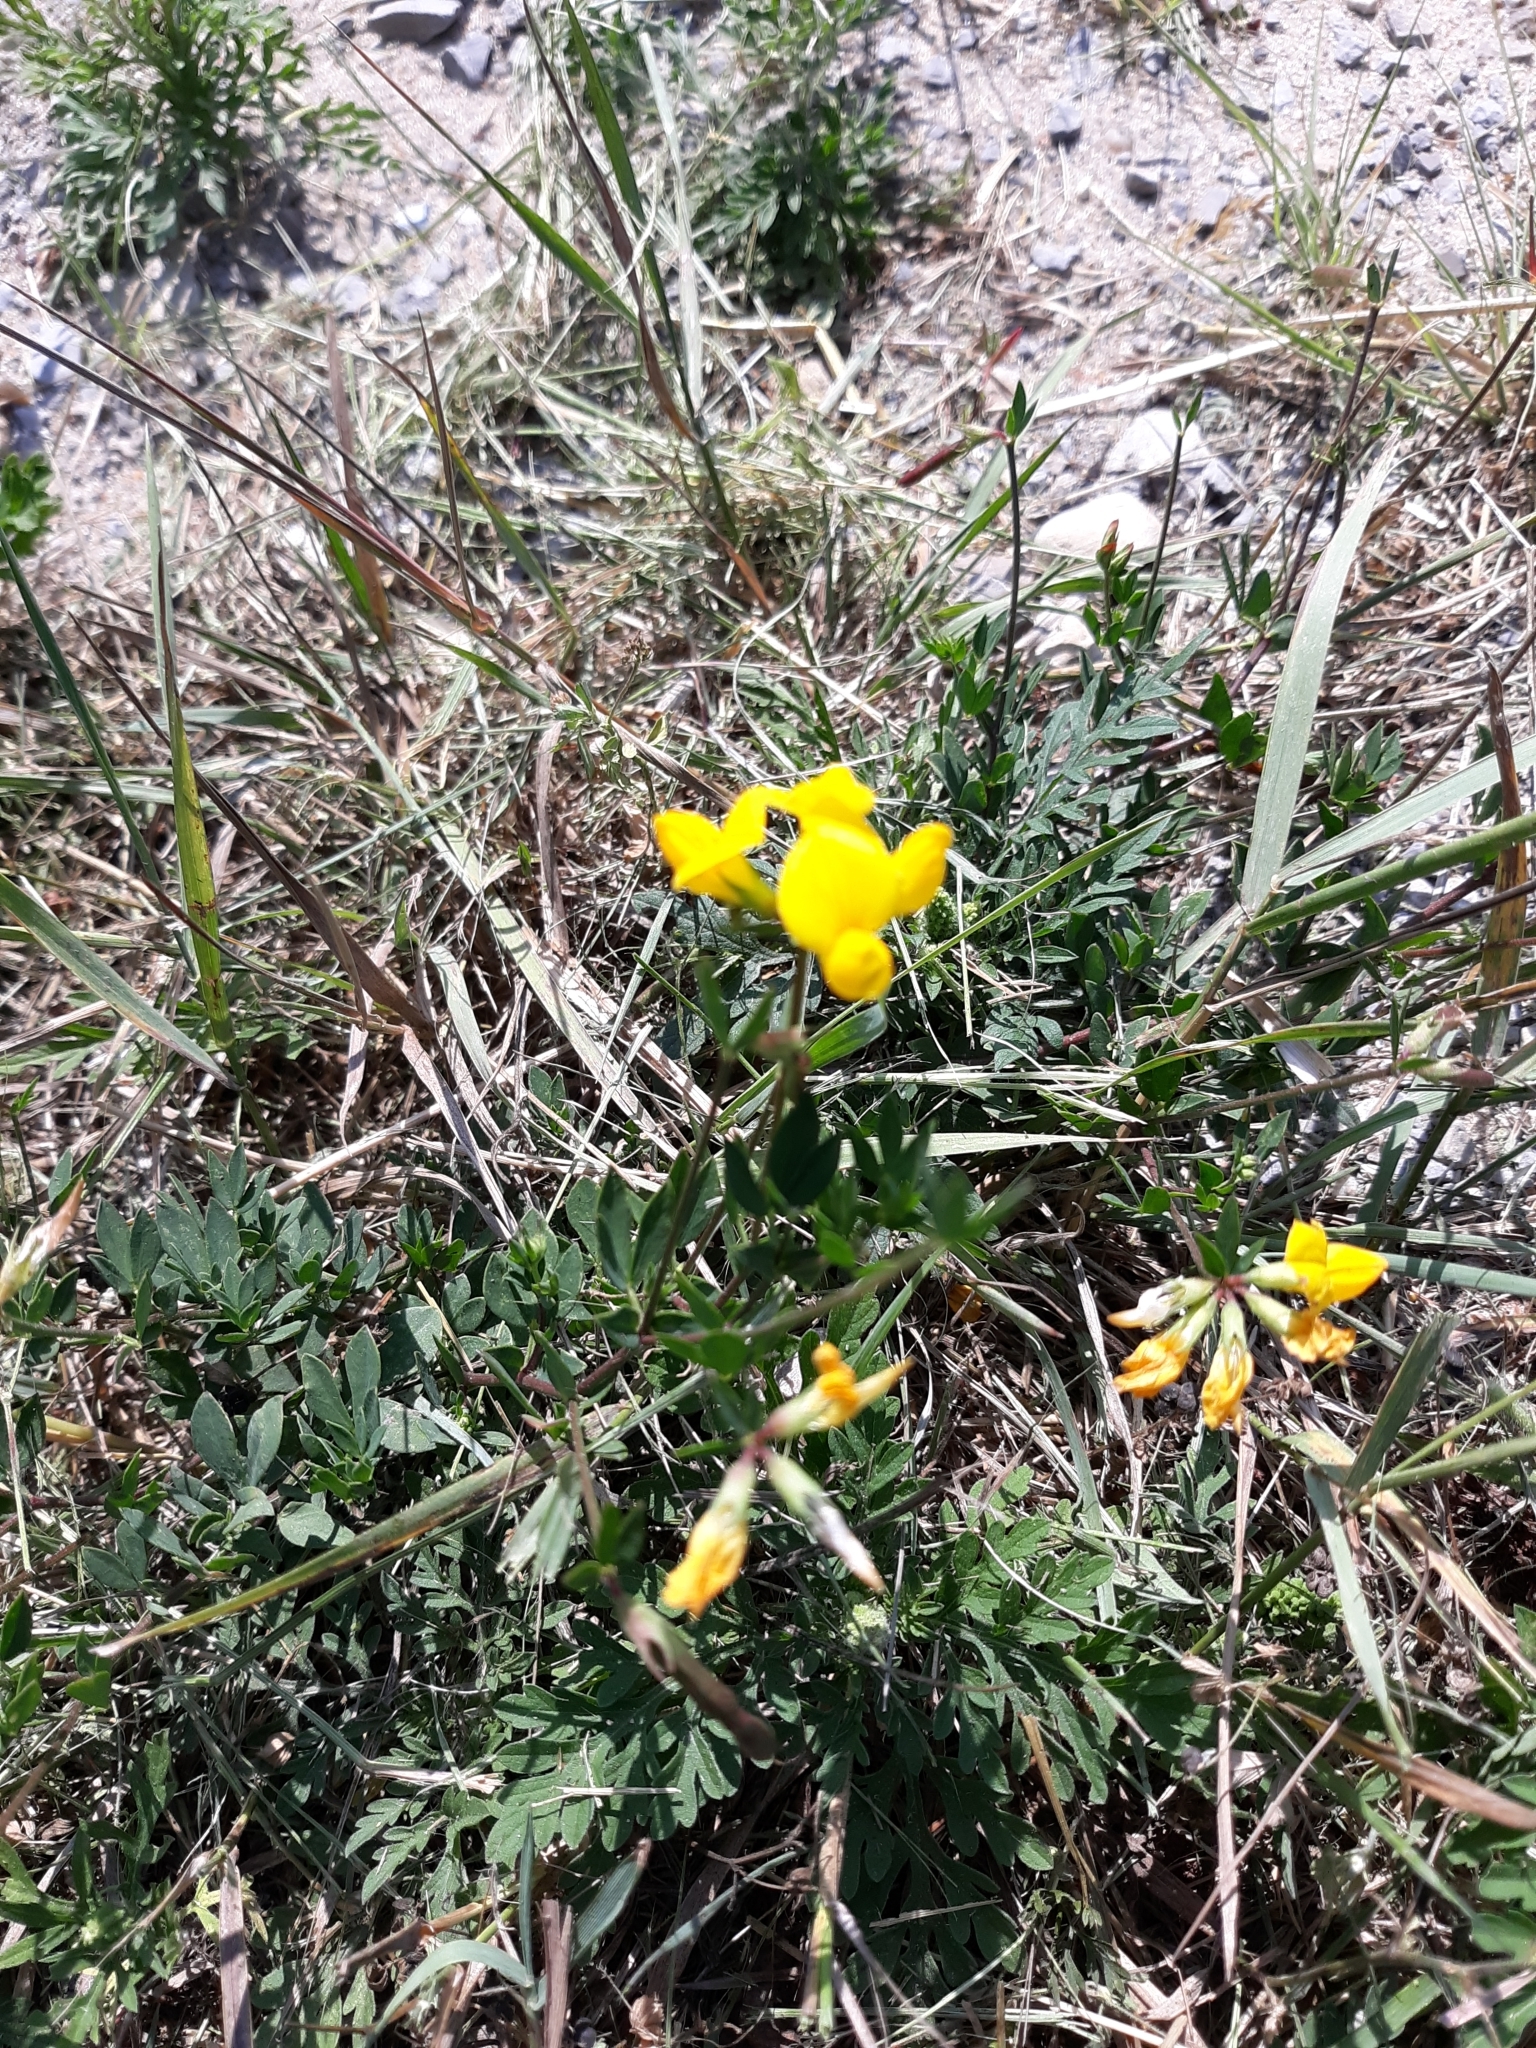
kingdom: Plantae
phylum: Tracheophyta
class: Magnoliopsida
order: Fabales
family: Fabaceae
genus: Lotus
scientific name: Lotus corniculatus
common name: Common bird's-foot-trefoil
